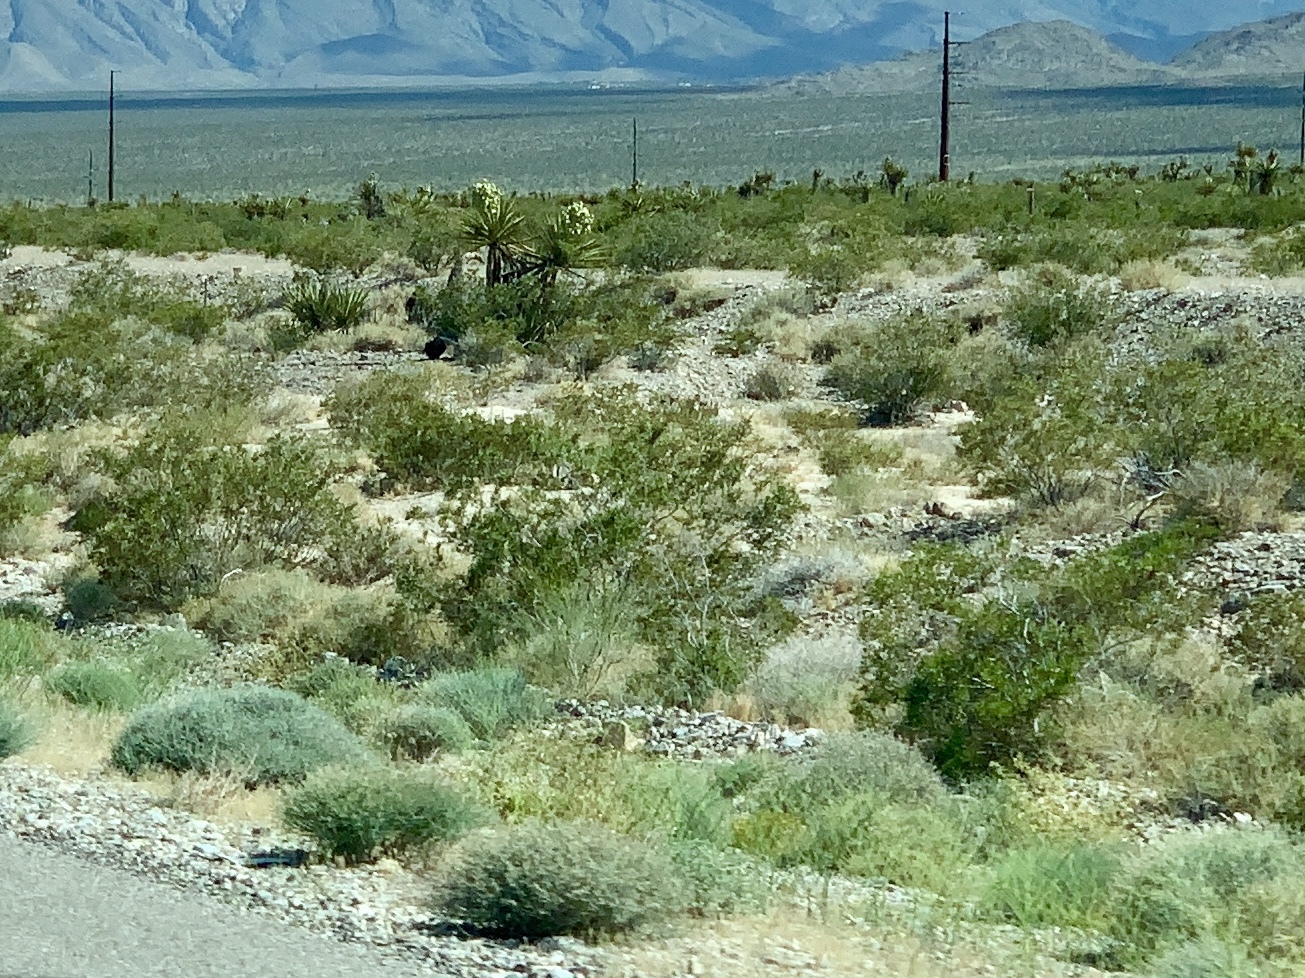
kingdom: Plantae
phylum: Tracheophyta
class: Magnoliopsida
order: Zygophyllales
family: Zygophyllaceae
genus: Larrea
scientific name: Larrea tridentata
